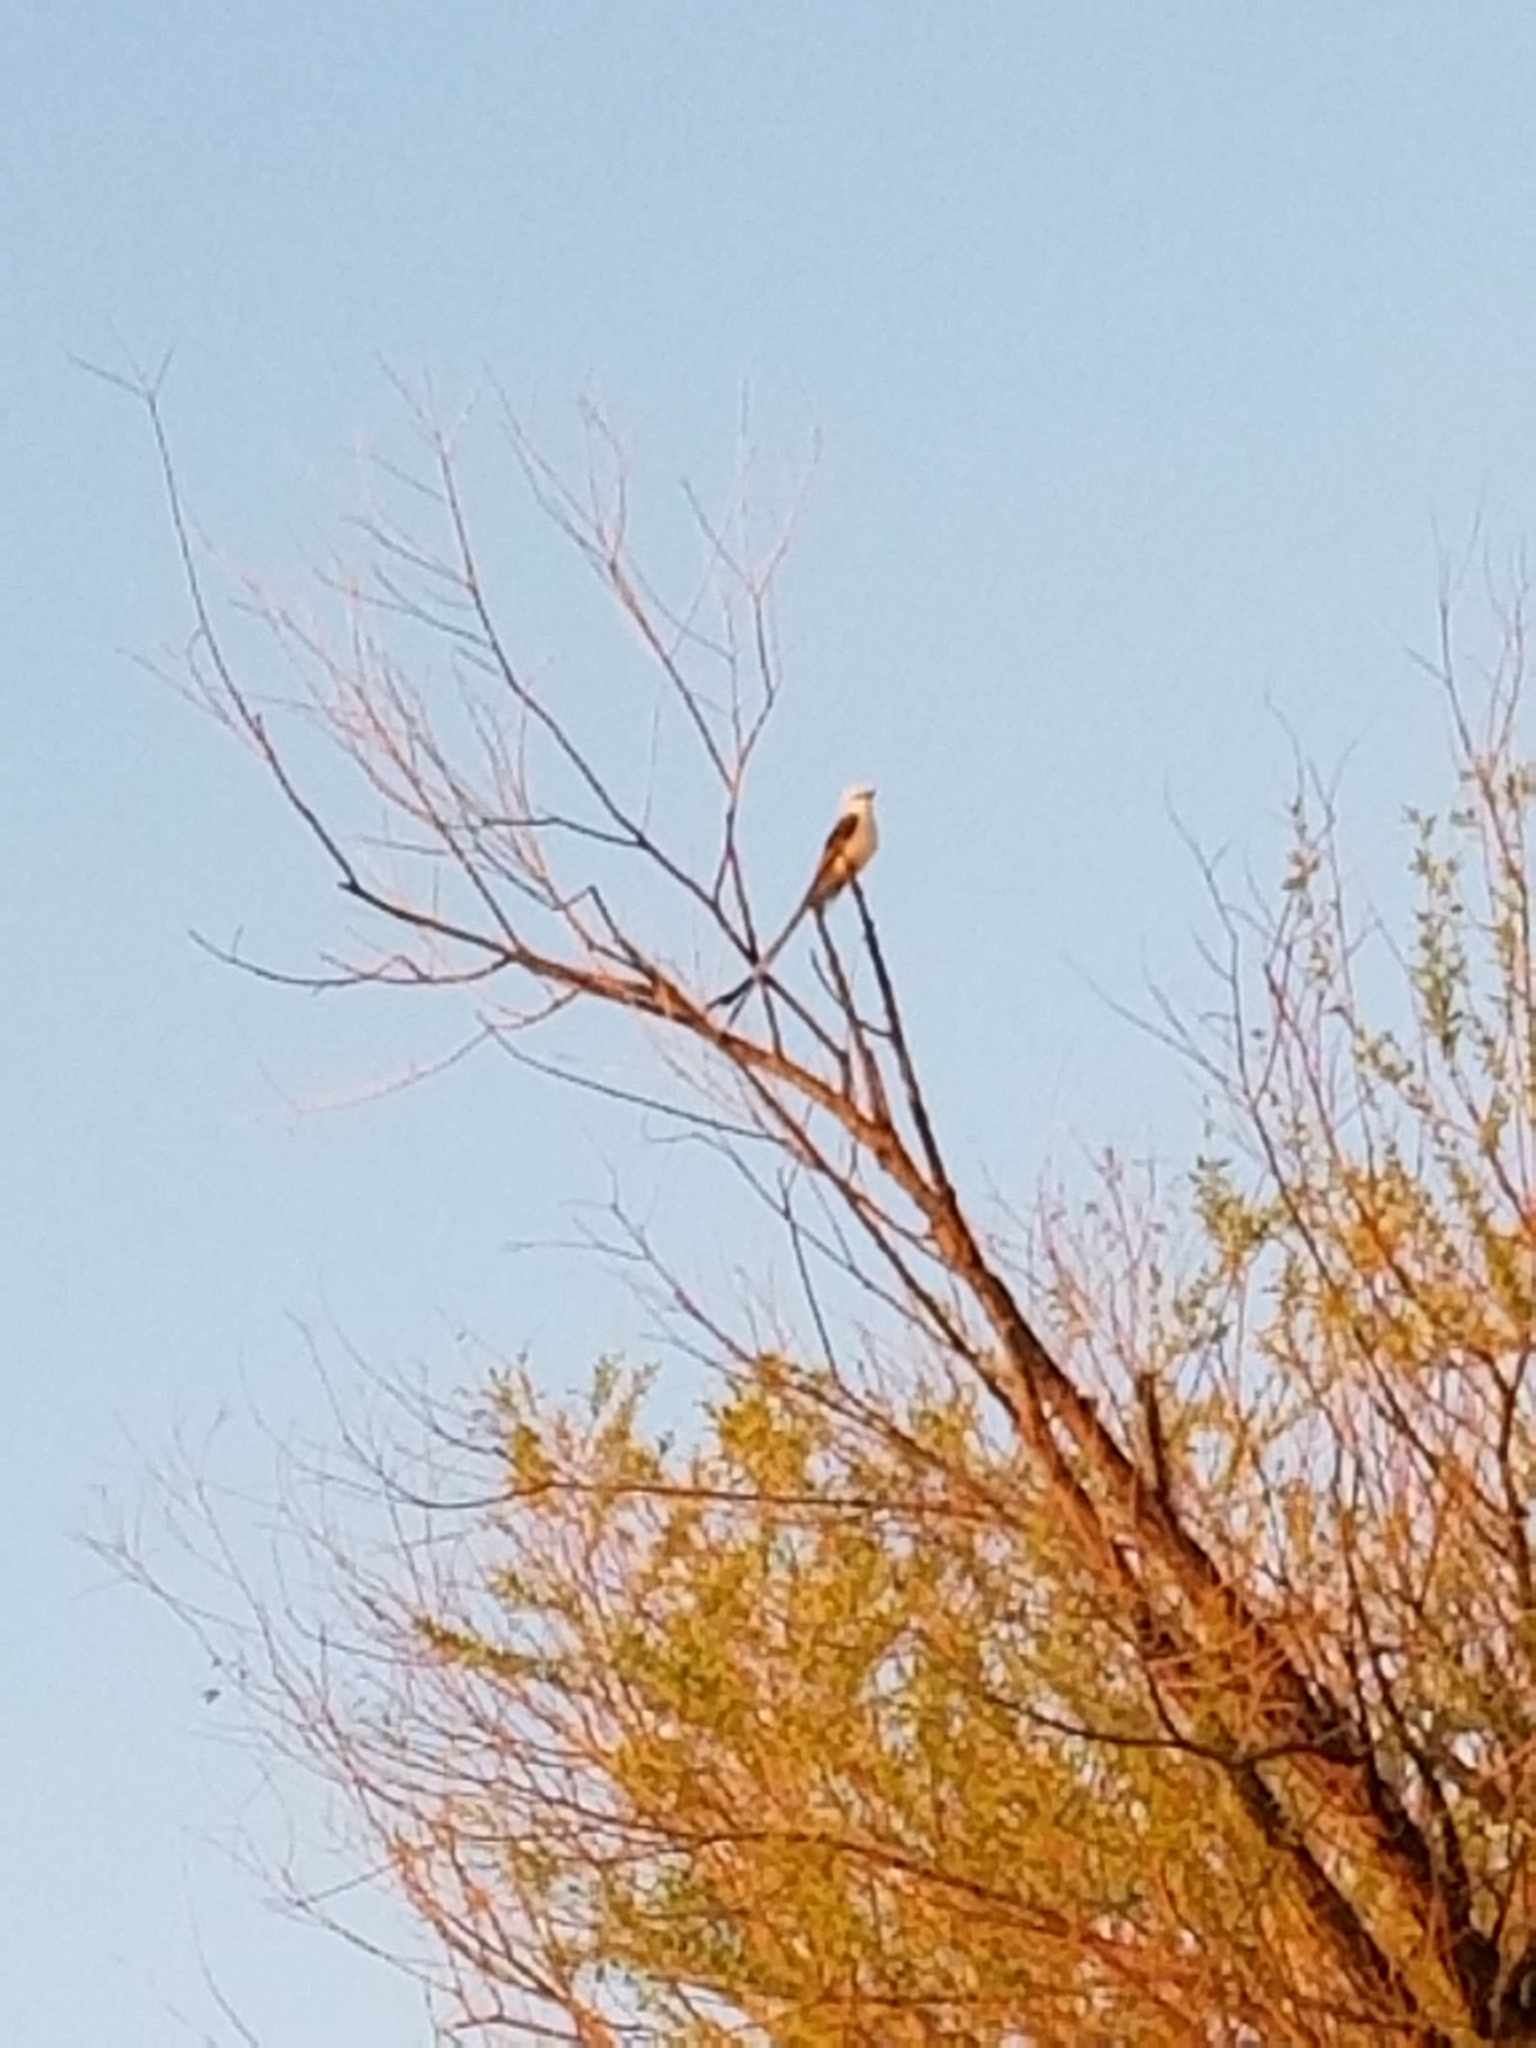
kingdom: Animalia
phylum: Chordata
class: Aves
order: Passeriformes
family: Tyrannidae
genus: Tyrannus
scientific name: Tyrannus forficatus
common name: Scissor-tailed flycatcher
